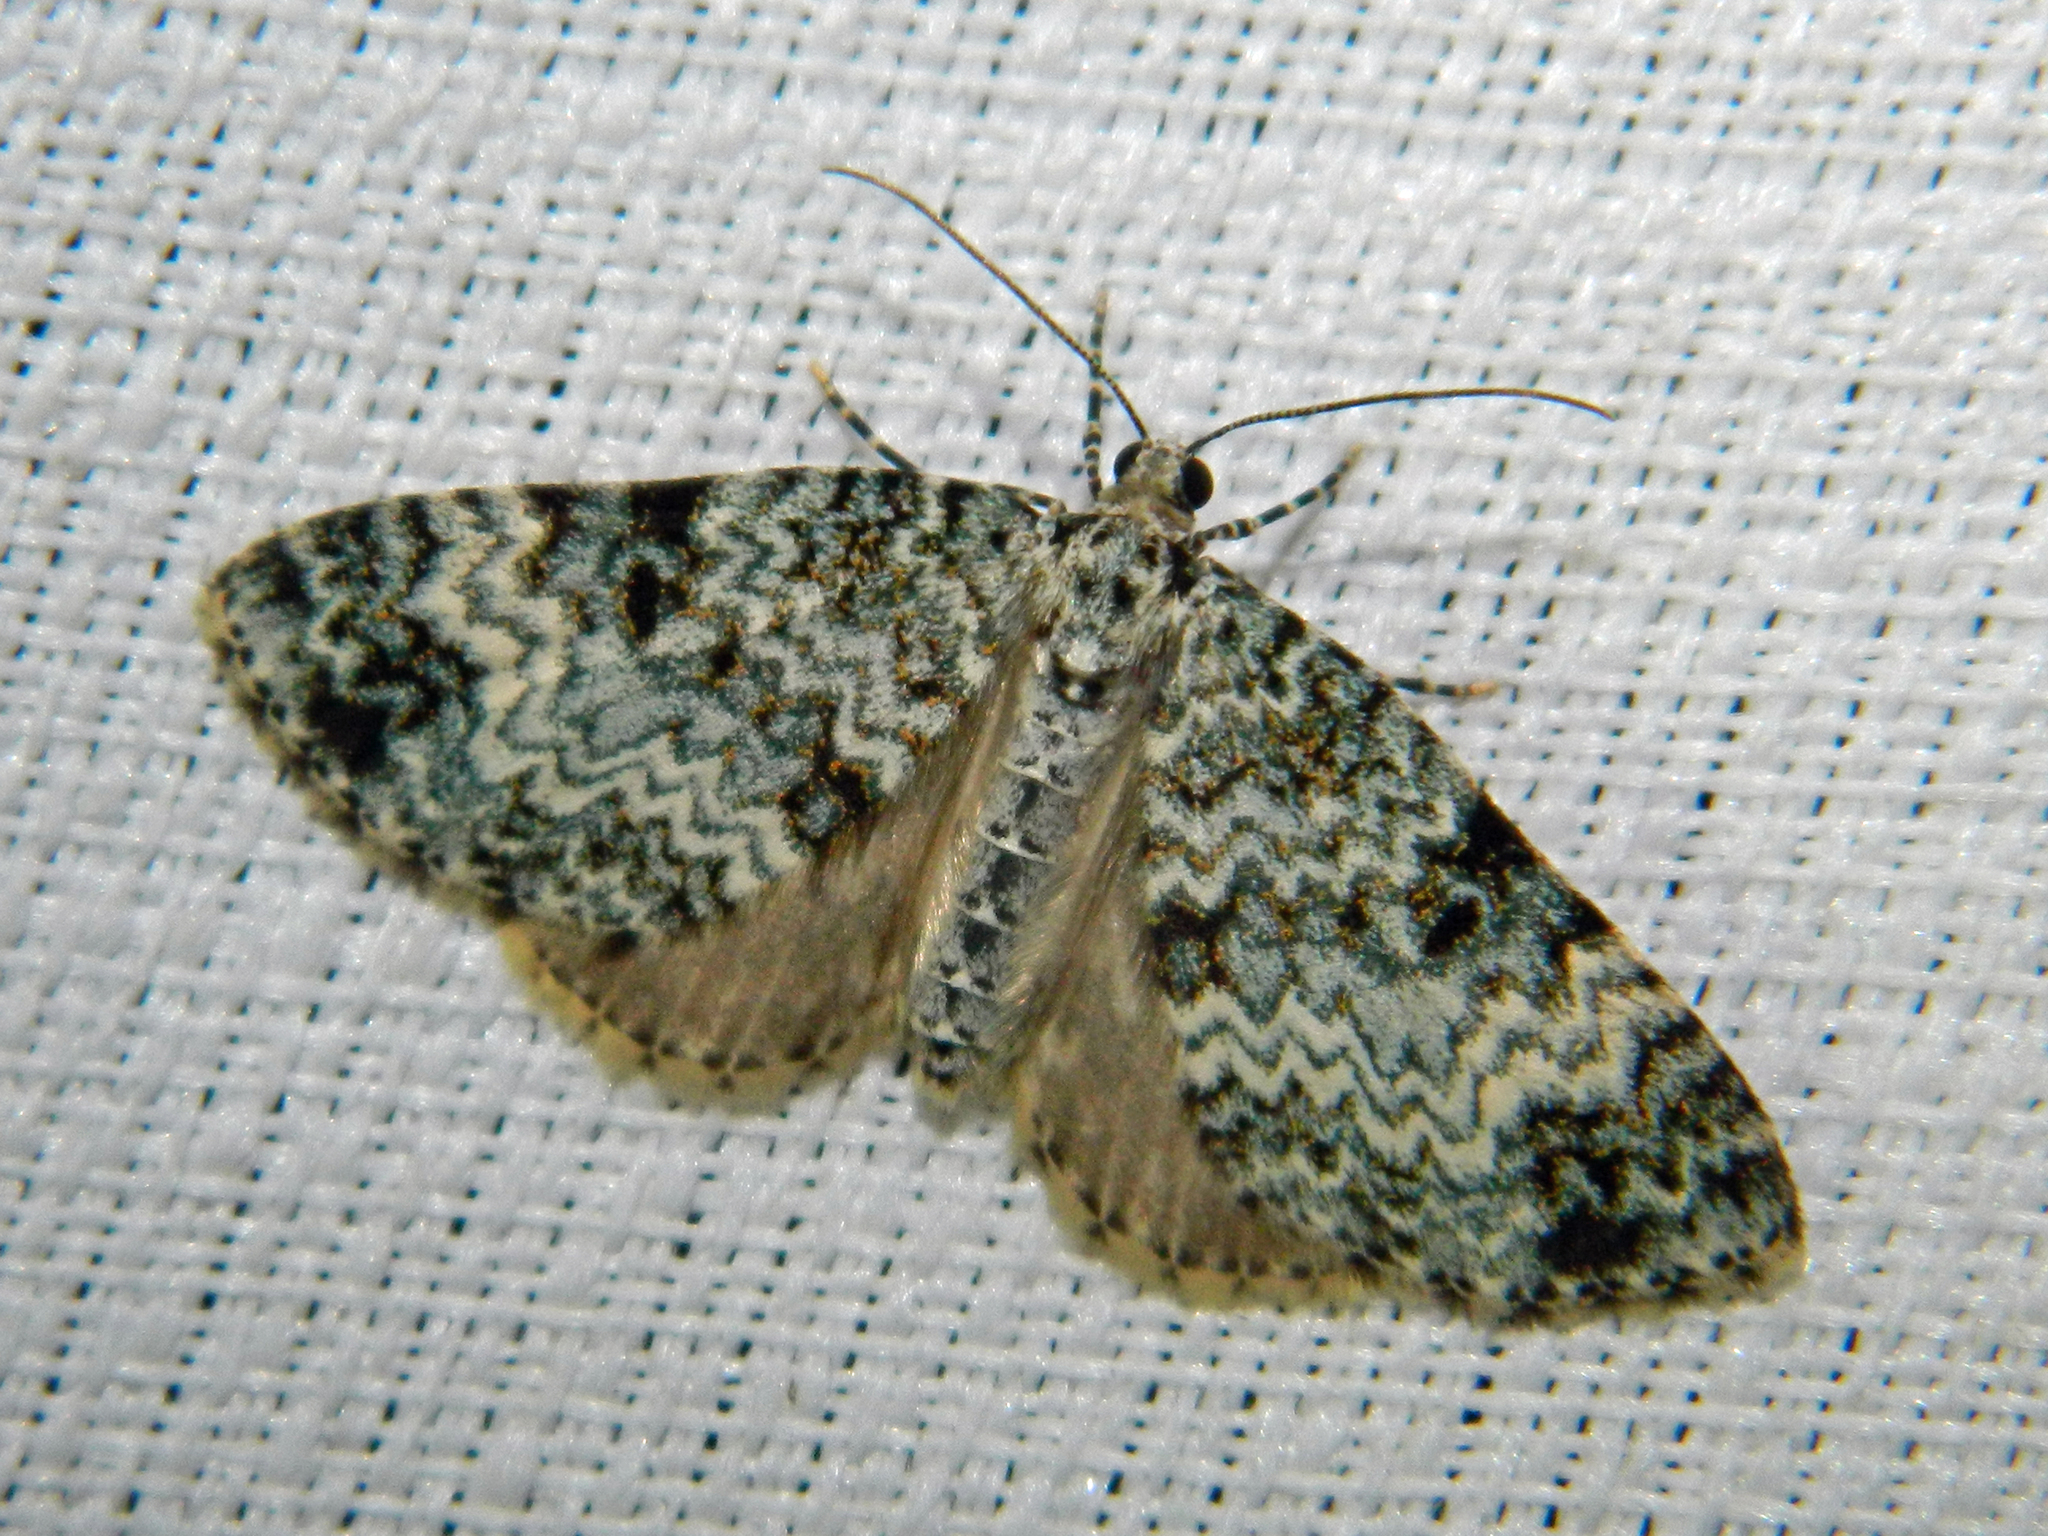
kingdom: Animalia
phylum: Arthropoda
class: Insecta
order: Lepidoptera
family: Geometridae
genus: Spargania
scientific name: Spargania magnoliata
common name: Double-banded carpet
